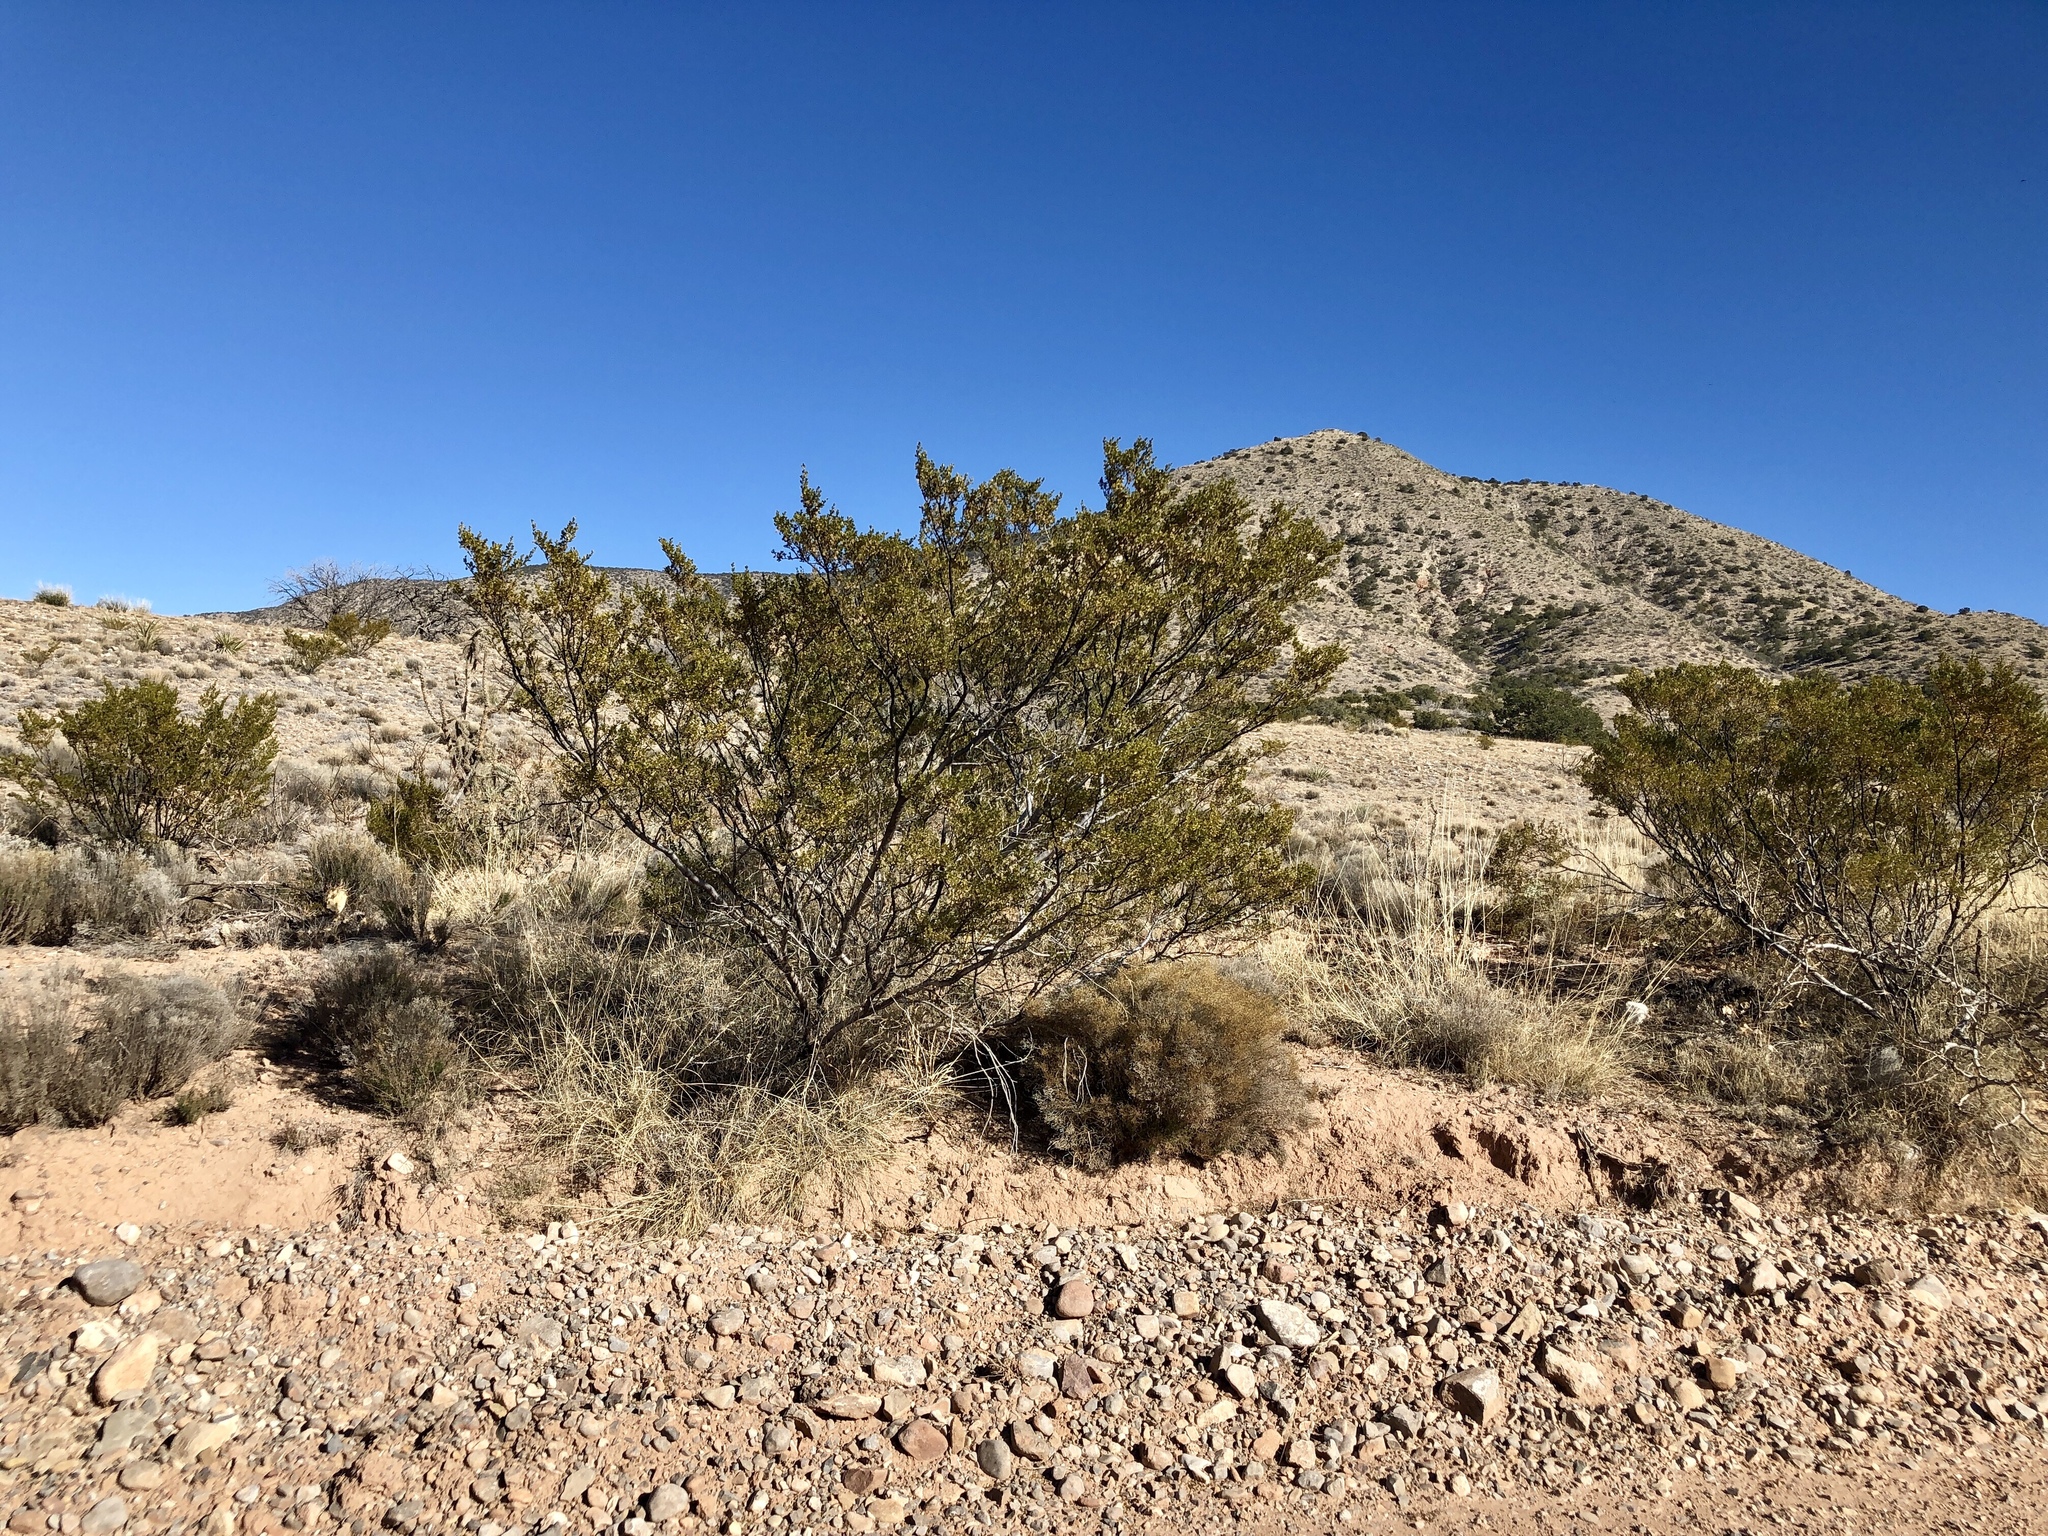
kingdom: Plantae
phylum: Tracheophyta
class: Magnoliopsida
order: Zygophyllales
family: Zygophyllaceae
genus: Larrea
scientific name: Larrea tridentata
